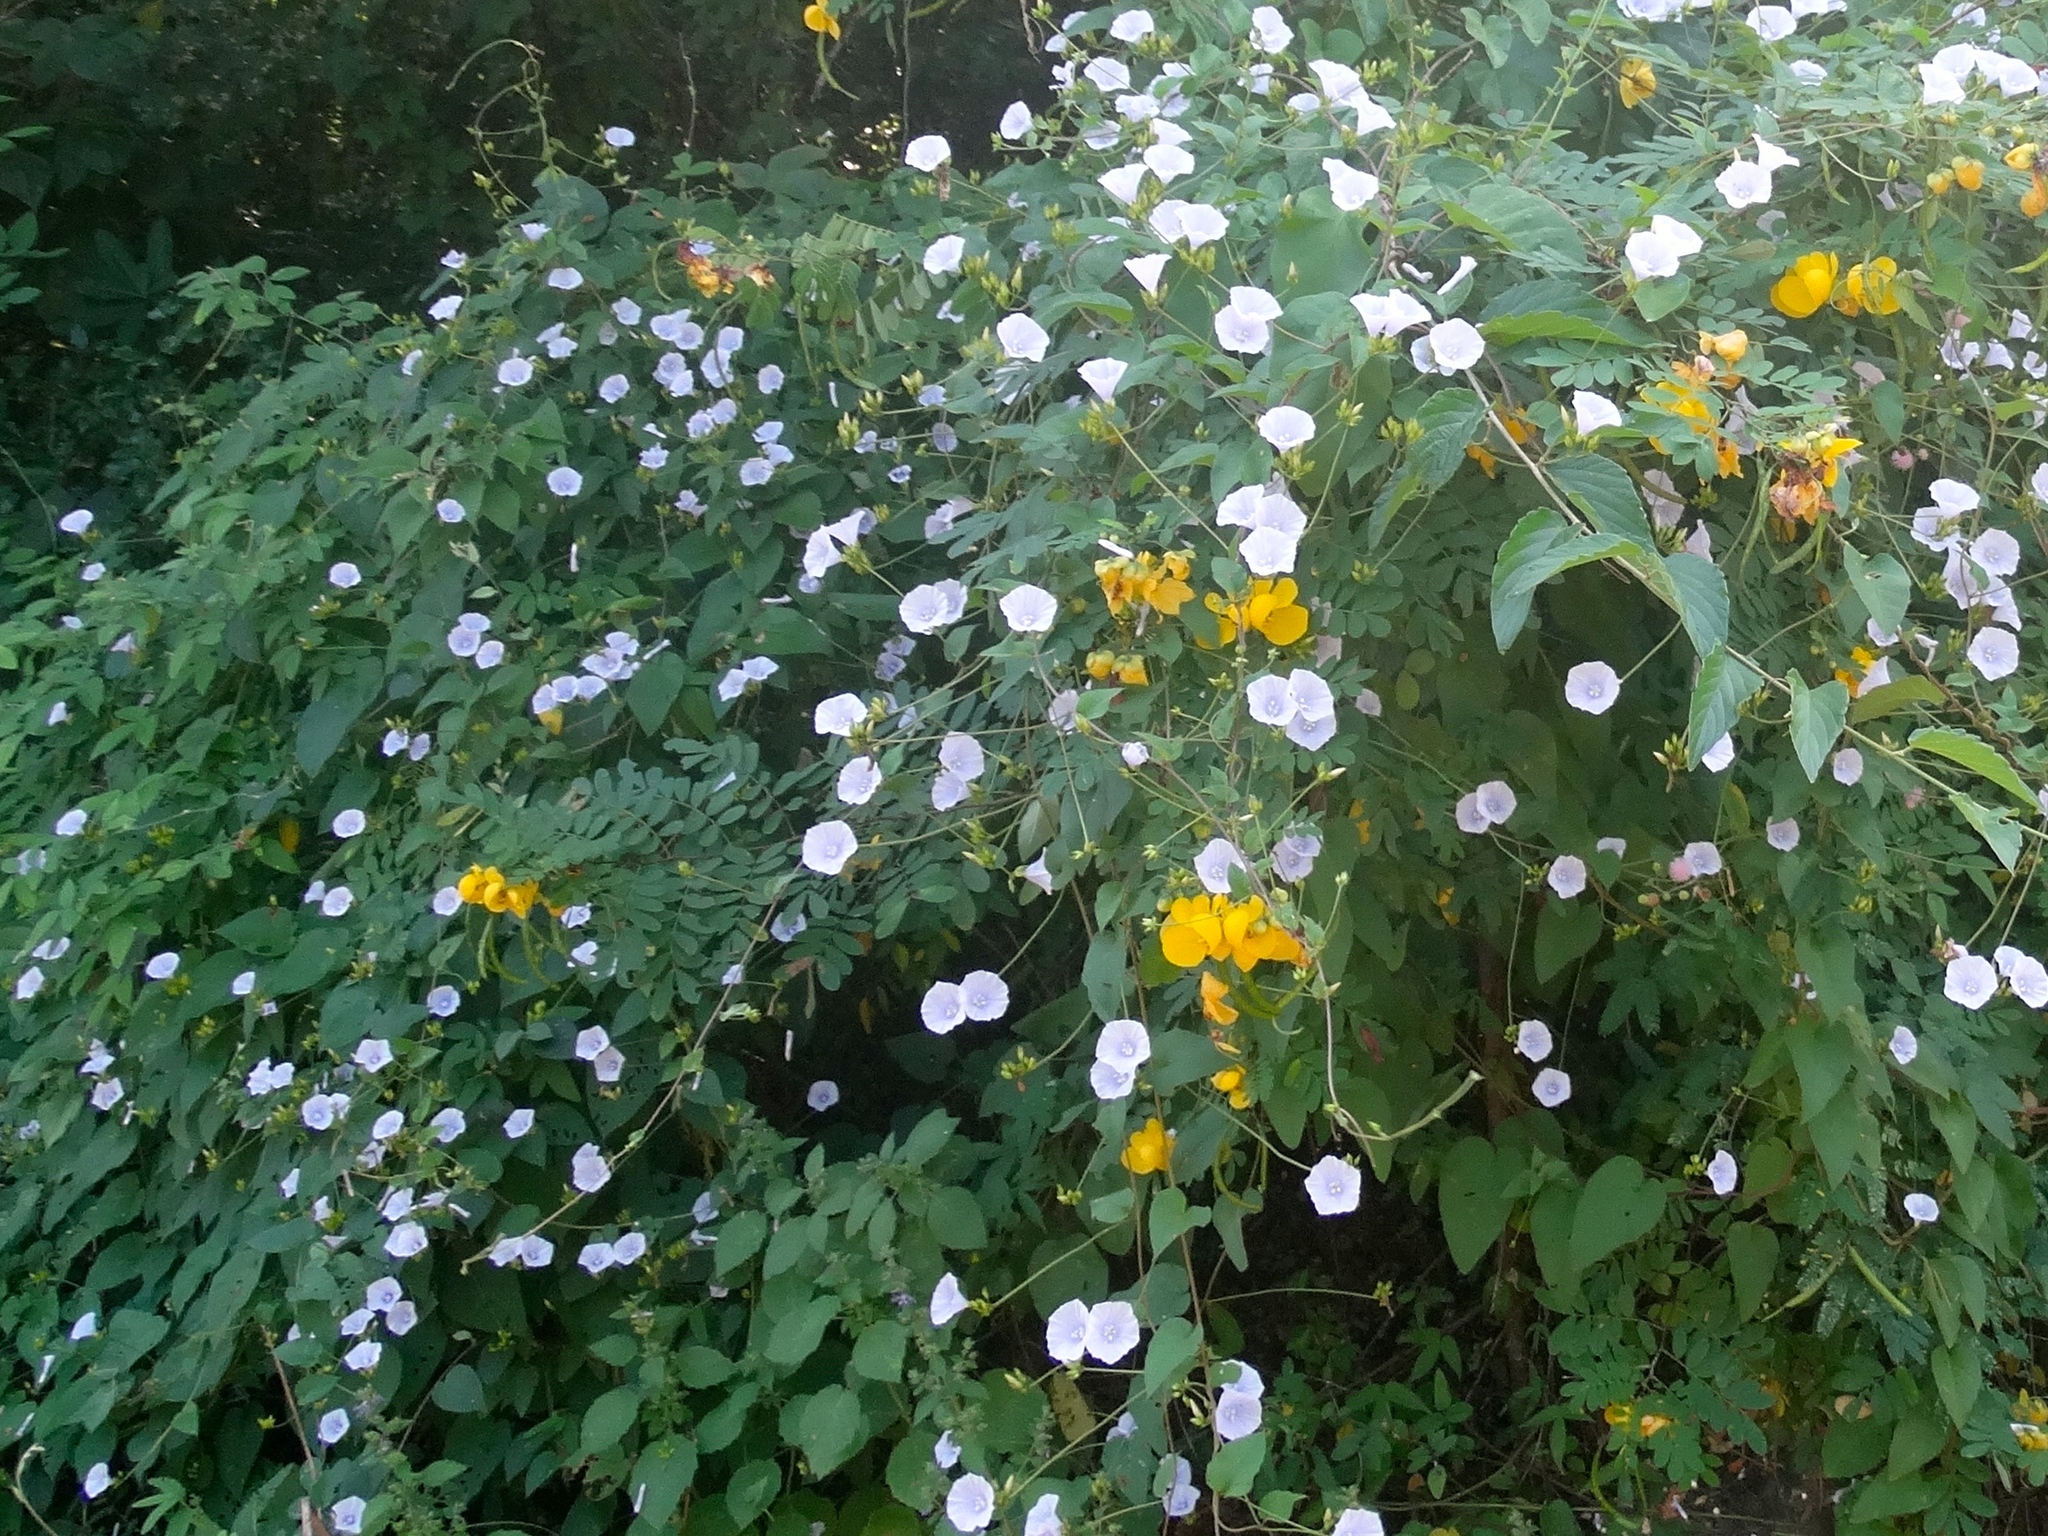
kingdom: Plantae
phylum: Tracheophyta
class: Magnoliopsida
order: Solanales
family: Convolvulaceae
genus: Jacquemontia
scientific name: Jacquemontia
